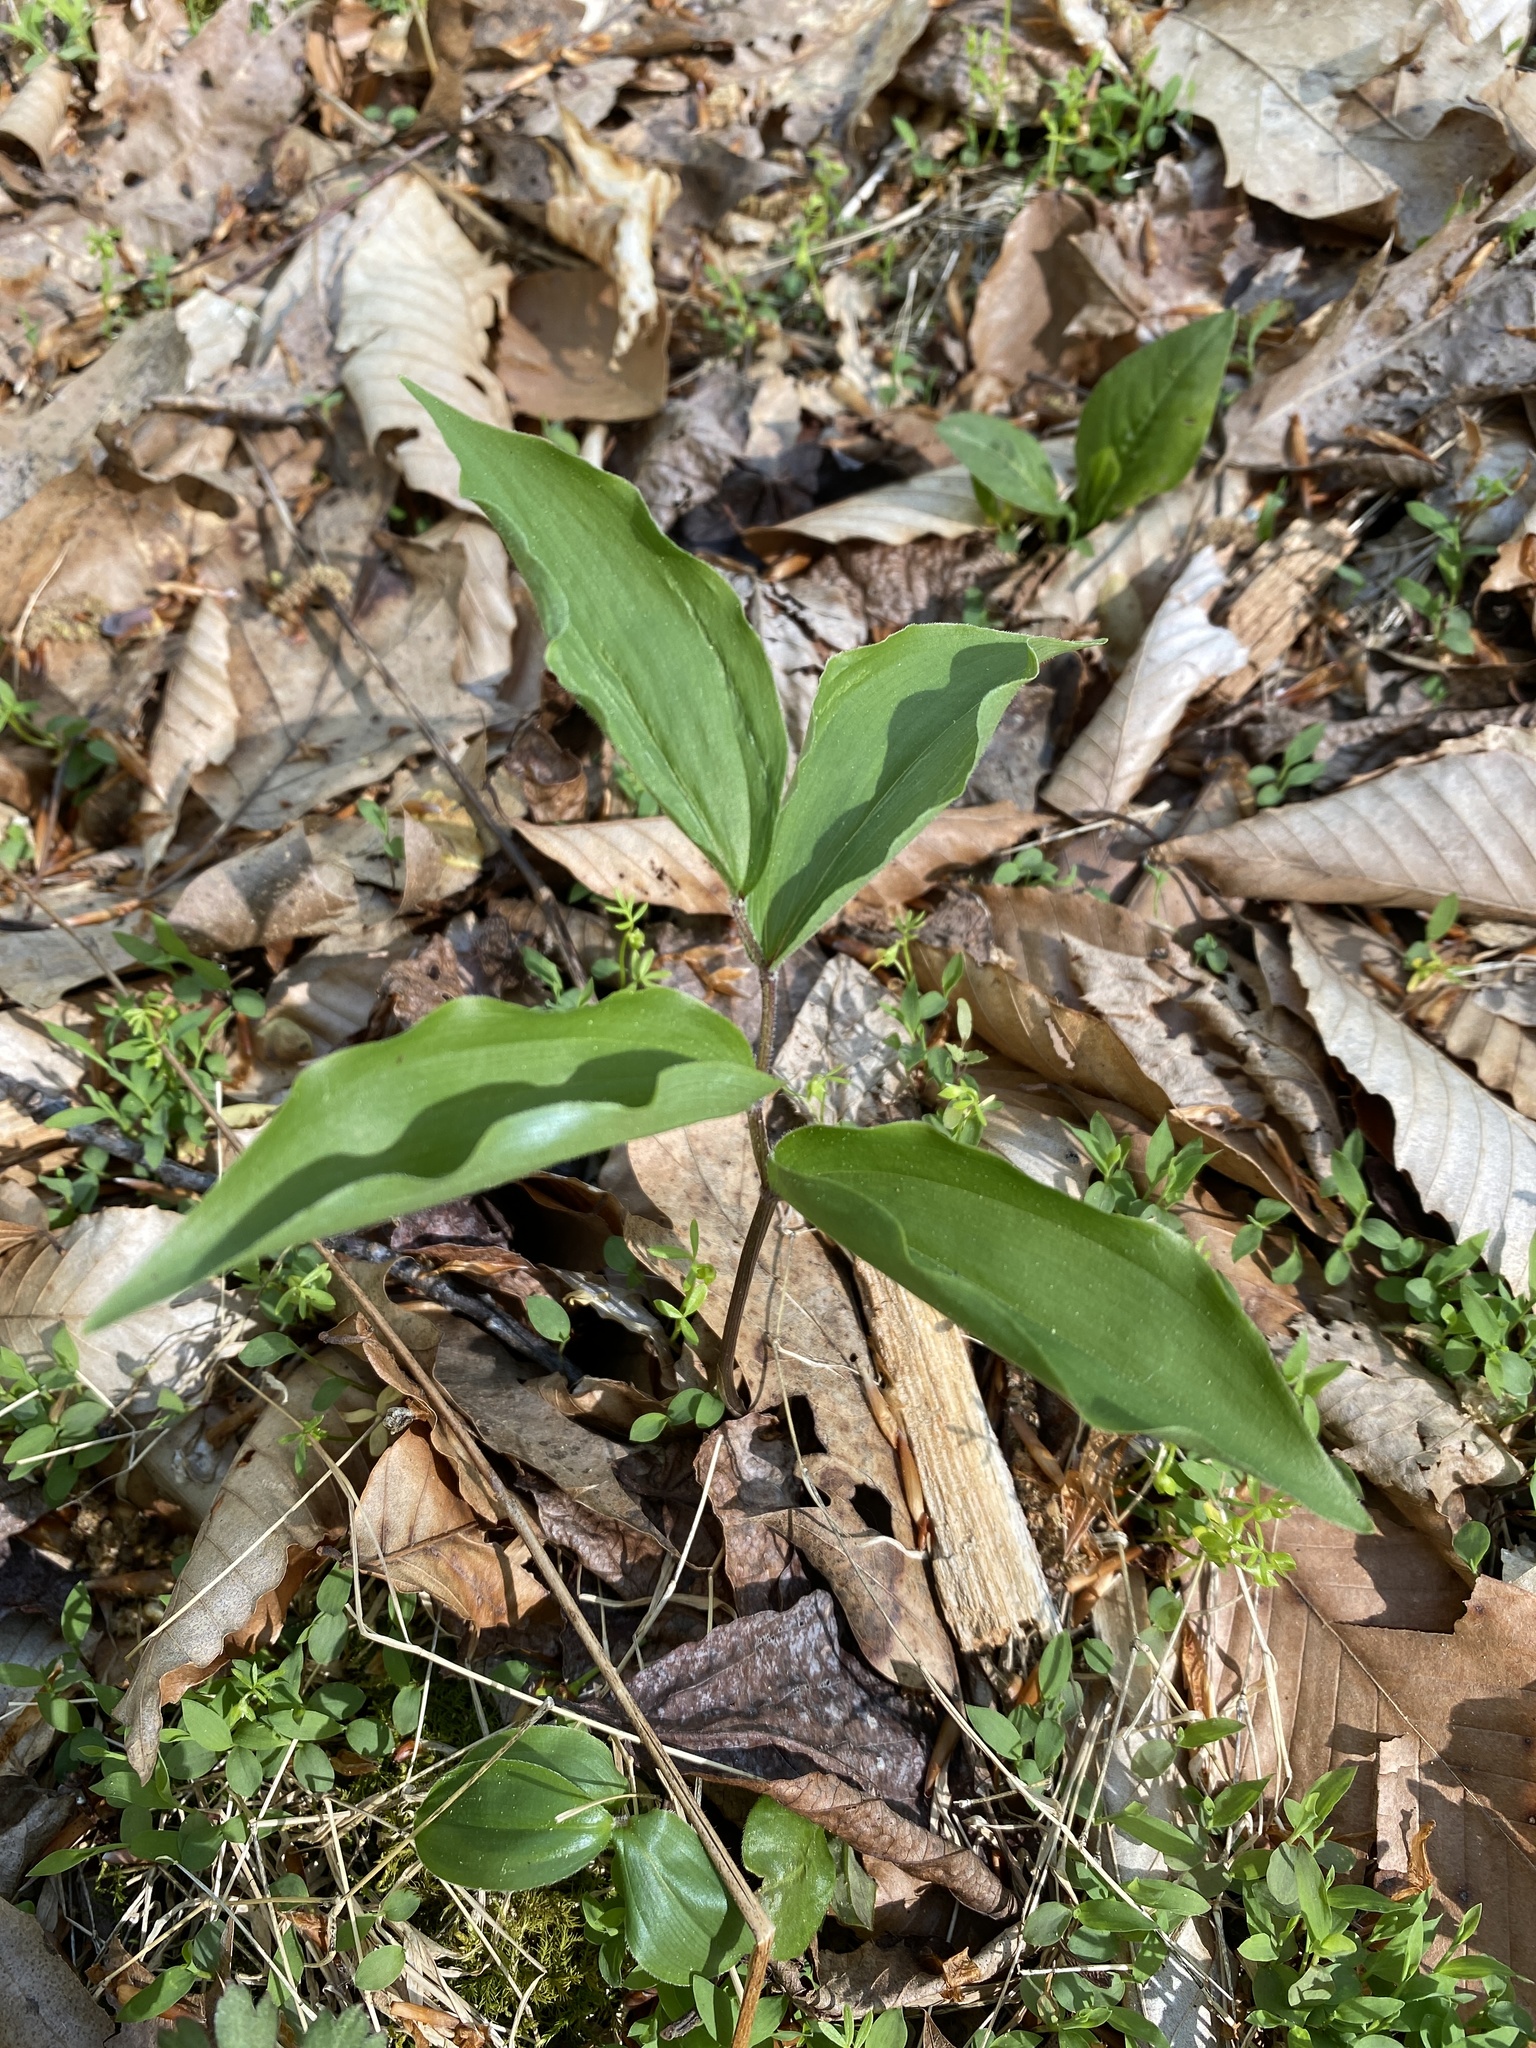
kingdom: Plantae
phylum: Tracheophyta
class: Liliopsida
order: Asparagales
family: Asparagaceae
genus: Maianthemum
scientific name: Maianthemum racemosum
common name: False spikenard
